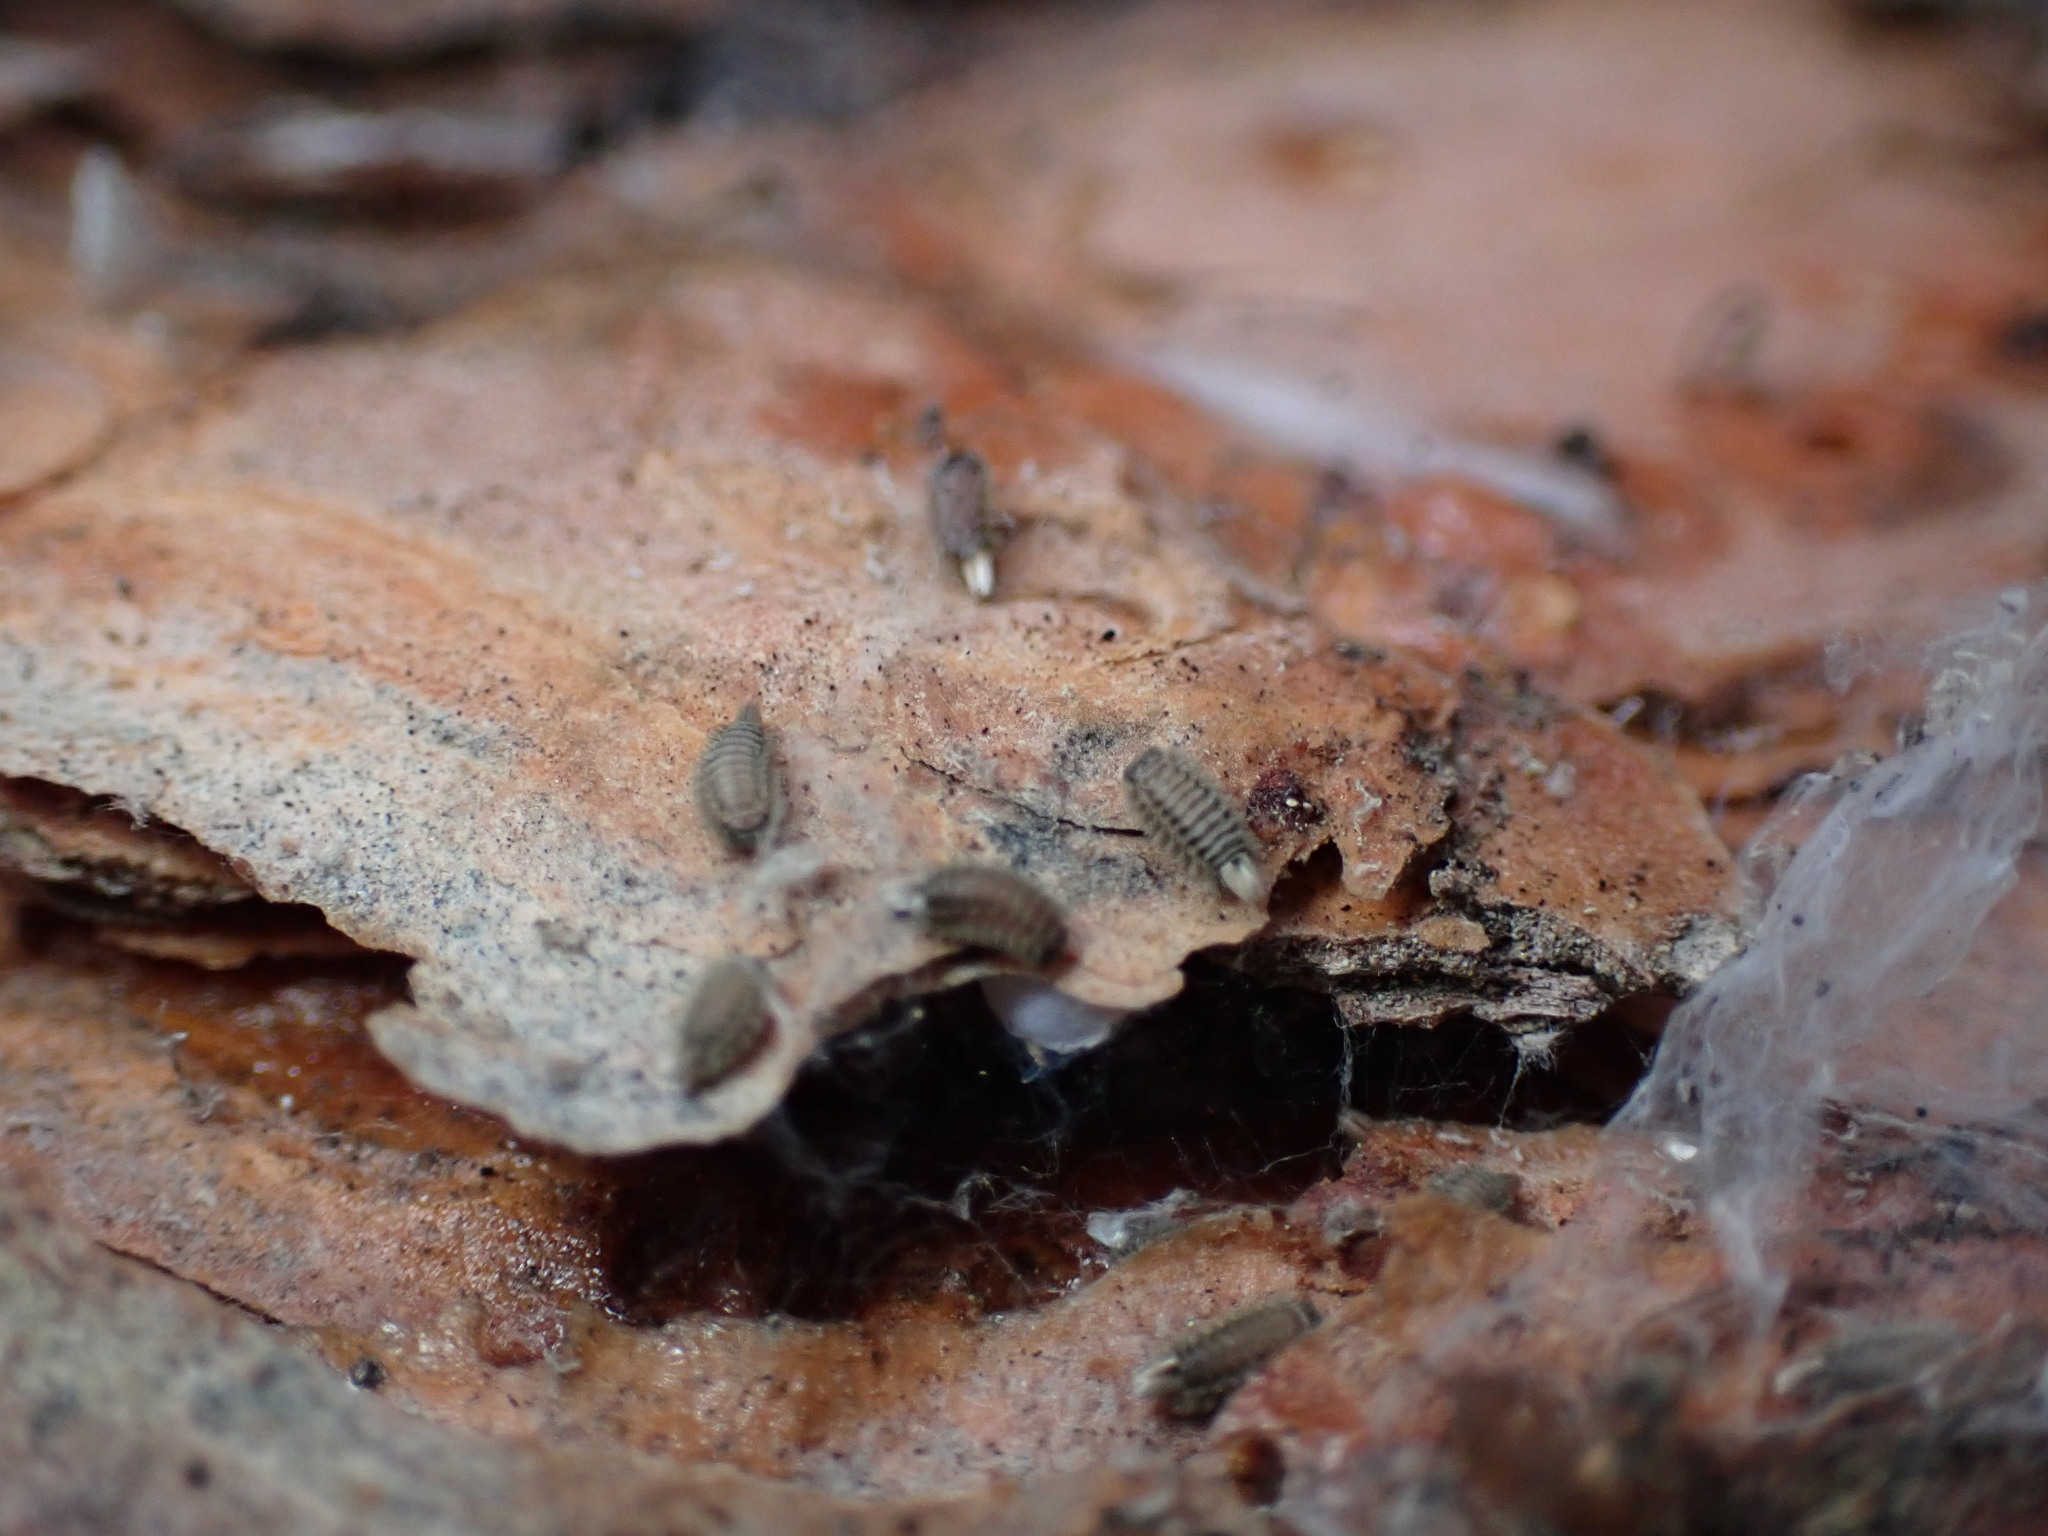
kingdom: Animalia
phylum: Arthropoda
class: Diplopoda
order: Polyxenida
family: Polyxenidae
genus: Polyxenus
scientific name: Polyxenus lagurus
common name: Bristly millipede
